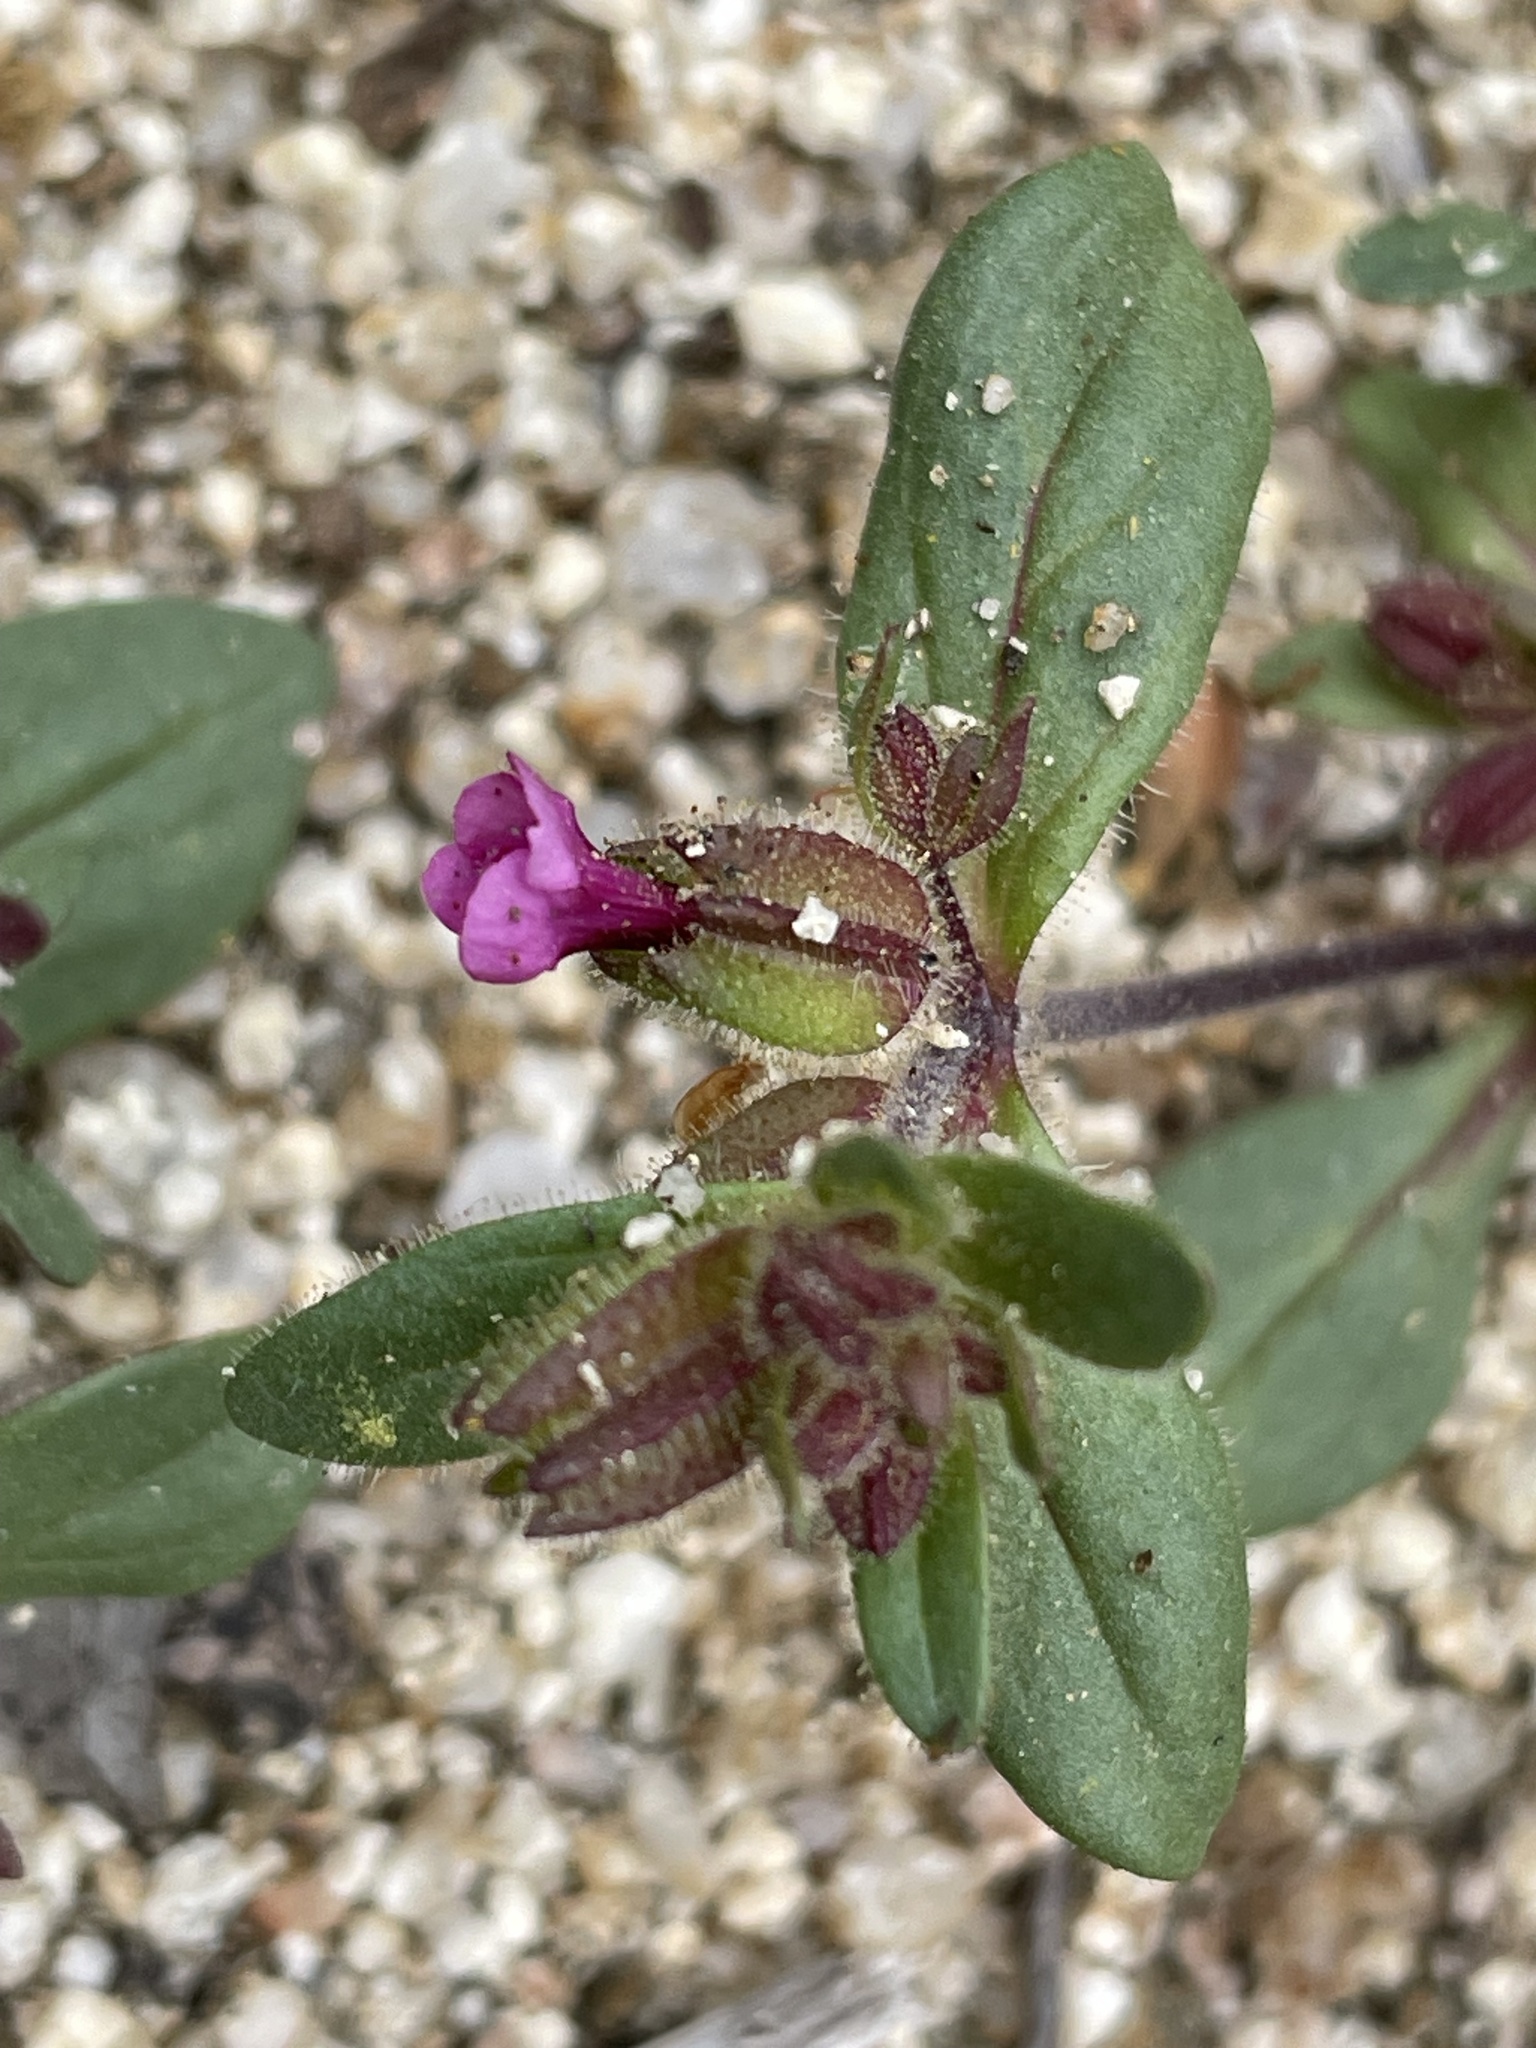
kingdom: Plantae
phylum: Tracheophyta
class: Magnoliopsida
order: Lamiales
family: Phrymaceae
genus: Diplacus
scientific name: Diplacus rattanii
